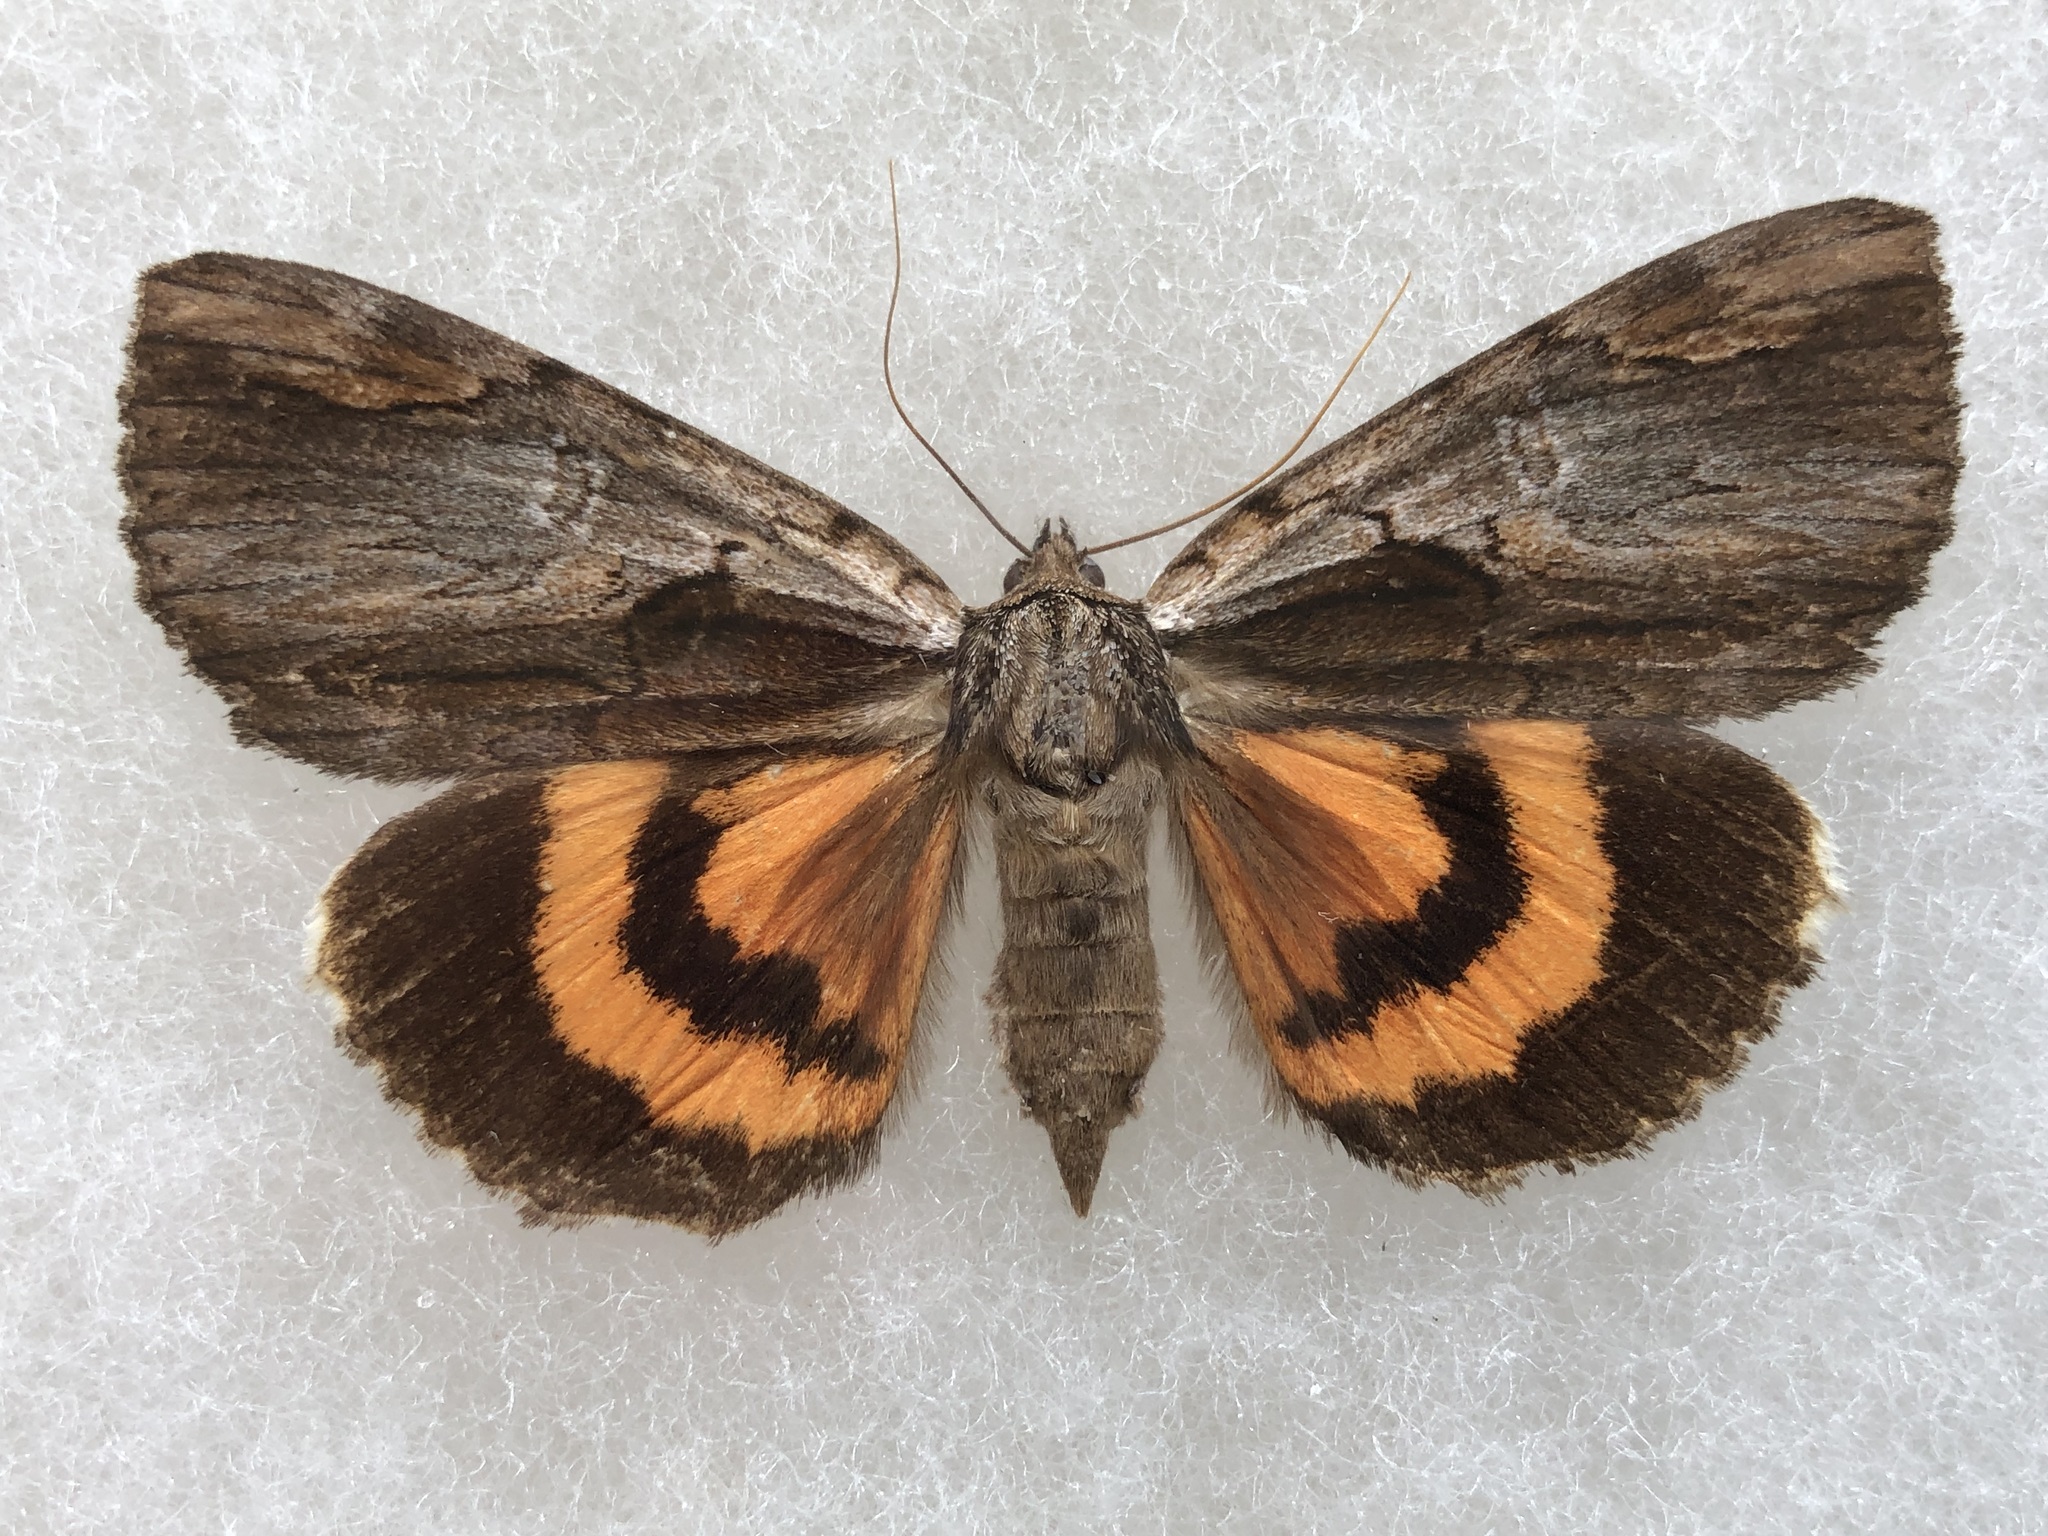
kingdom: Animalia
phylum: Arthropoda
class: Insecta
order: Lepidoptera
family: Erebidae
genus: Catocala
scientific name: Catocala ultronia
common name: Ultronia underwing
